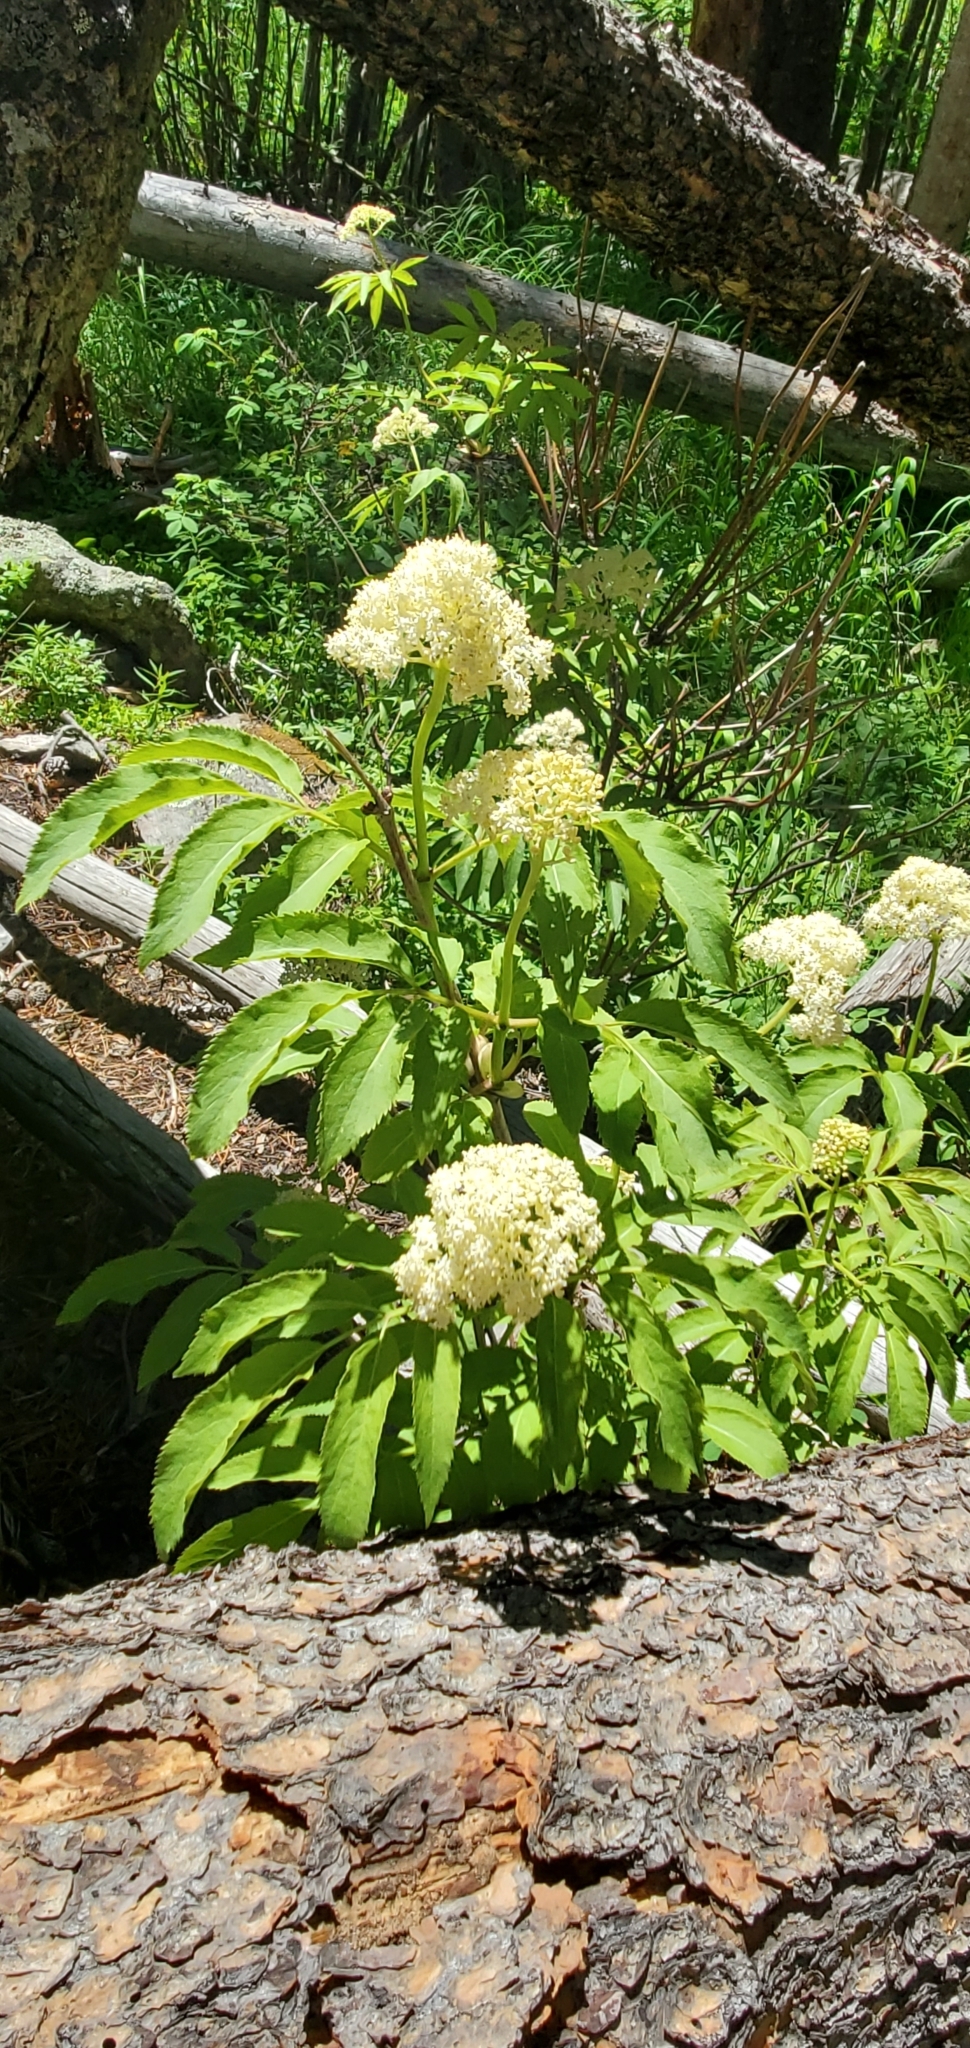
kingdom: Plantae
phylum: Tracheophyta
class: Magnoliopsida
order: Dipsacales
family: Viburnaceae
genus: Sambucus
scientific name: Sambucus racemosa
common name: Red-berried elder
